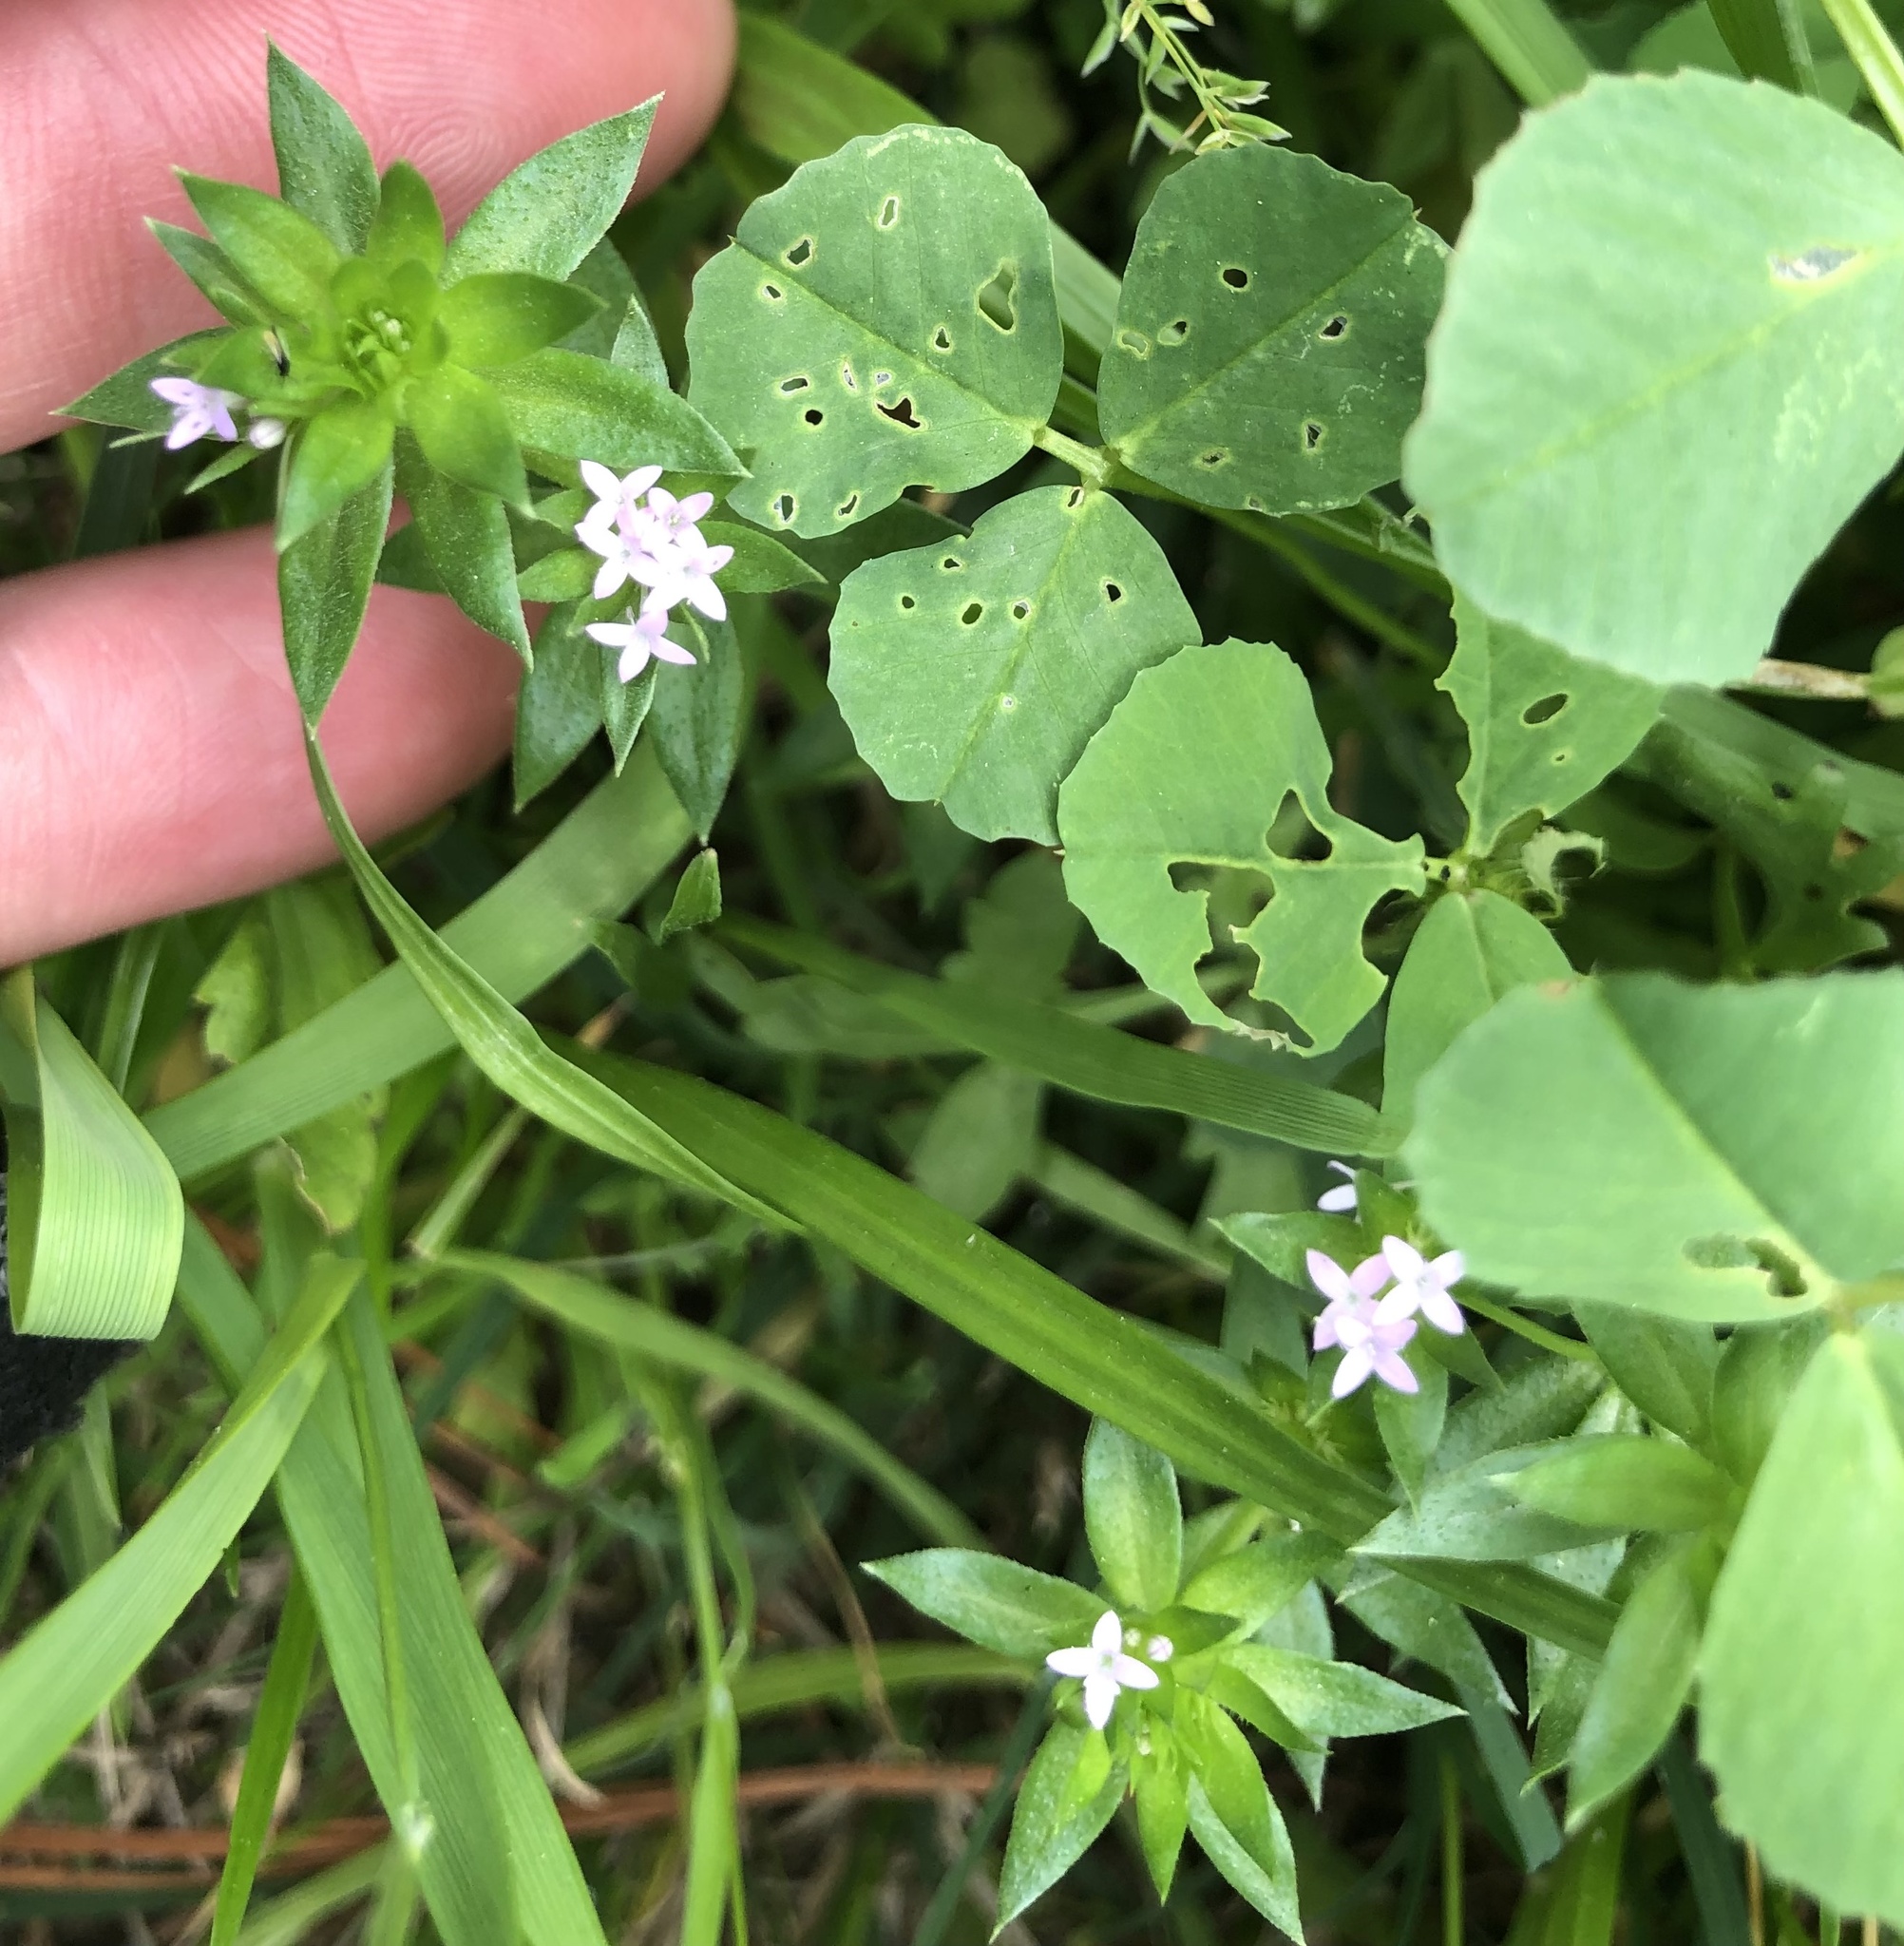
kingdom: Plantae
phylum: Tracheophyta
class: Magnoliopsida
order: Gentianales
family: Rubiaceae
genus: Sherardia
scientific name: Sherardia arvensis
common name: Field madder
